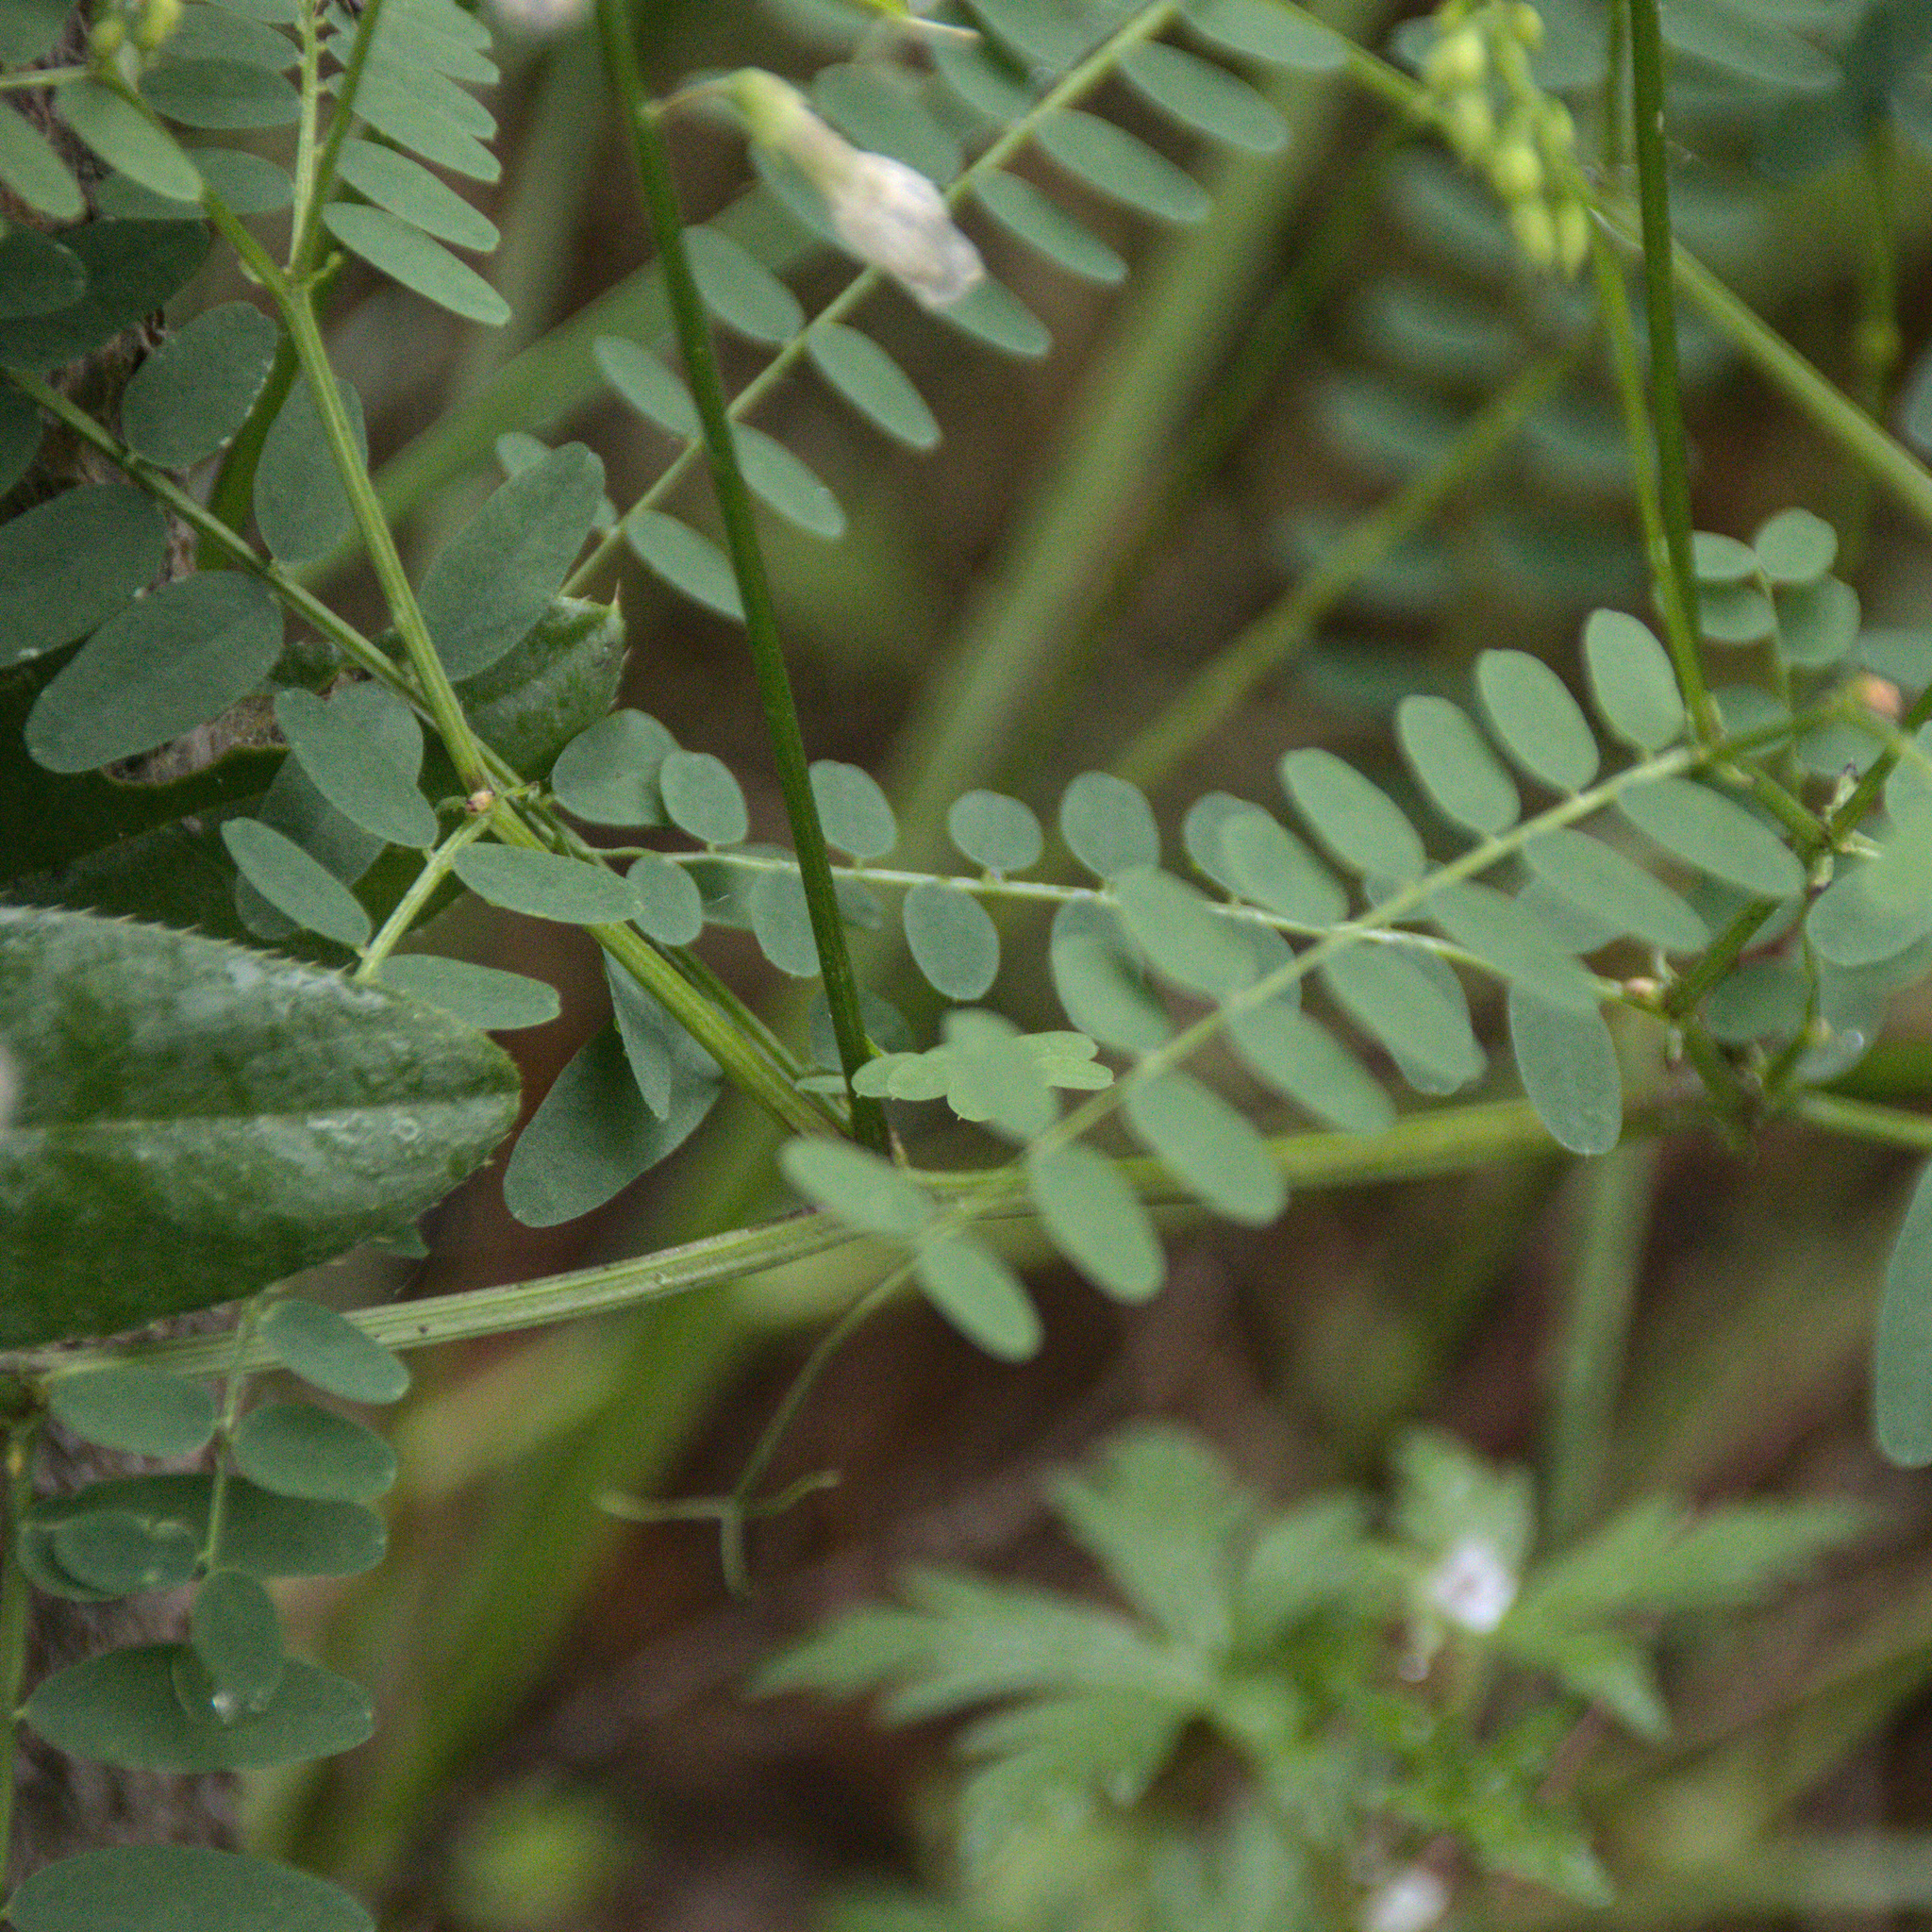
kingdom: Plantae
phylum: Tracheophyta
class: Magnoliopsida
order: Fabales
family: Fabaceae
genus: Vicia
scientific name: Vicia sylvatica
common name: Wood vetch
